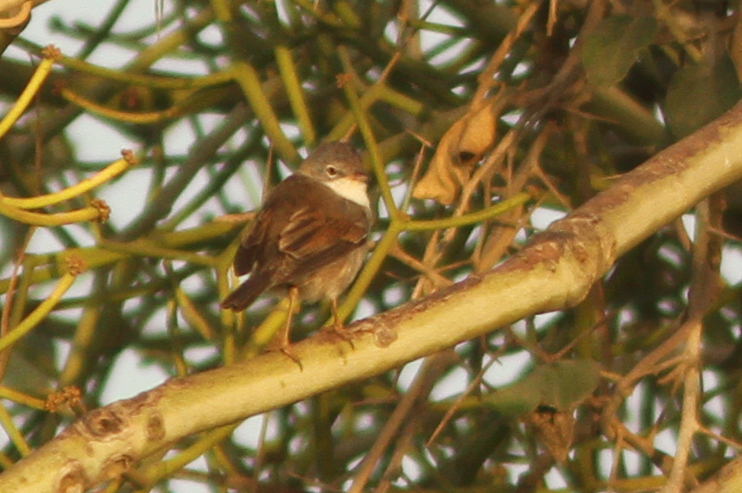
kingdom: Animalia
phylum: Chordata
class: Aves
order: Passeriformes
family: Sylviidae
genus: Sylvia
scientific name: Sylvia communis
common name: Common whitethroat
